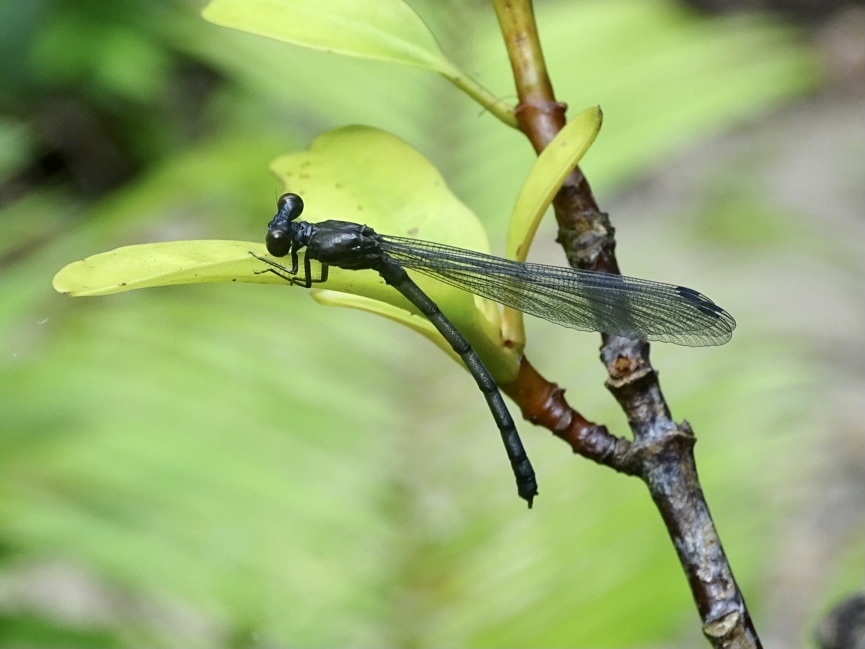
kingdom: Animalia
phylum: Arthropoda
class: Insecta
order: Odonata
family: Euphaeidae
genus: Euphaea
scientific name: Euphaea decorata
